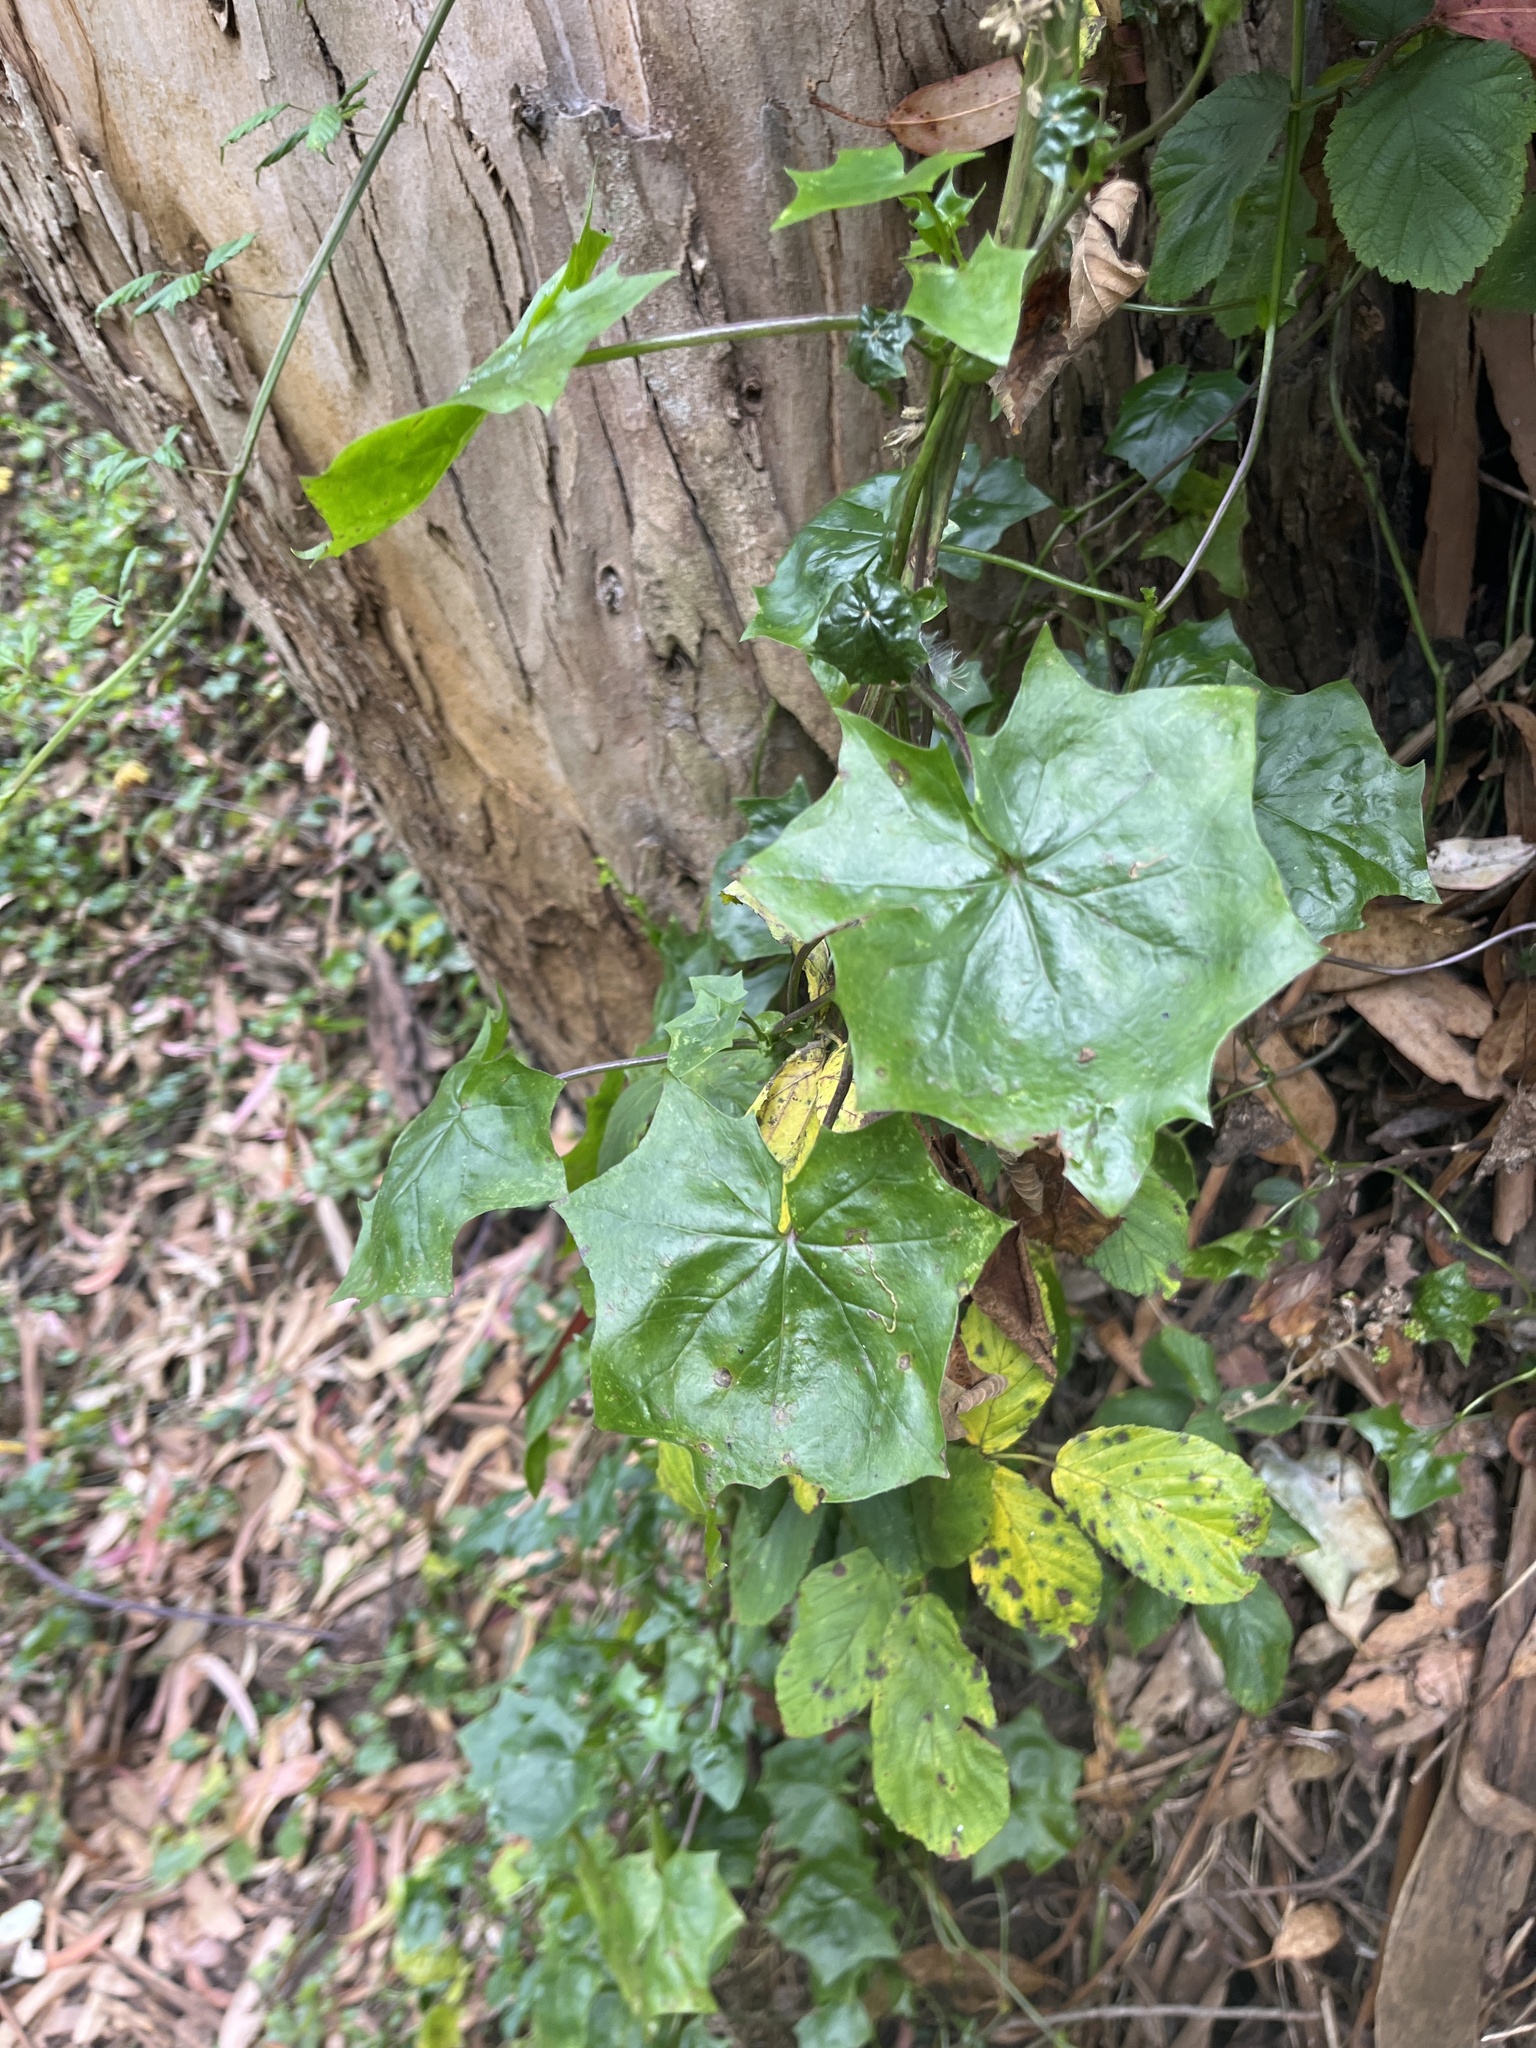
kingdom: Plantae
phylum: Tracheophyta
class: Magnoliopsida
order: Asterales
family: Asteraceae
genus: Delairea
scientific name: Delairea odorata
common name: Cape-ivy
